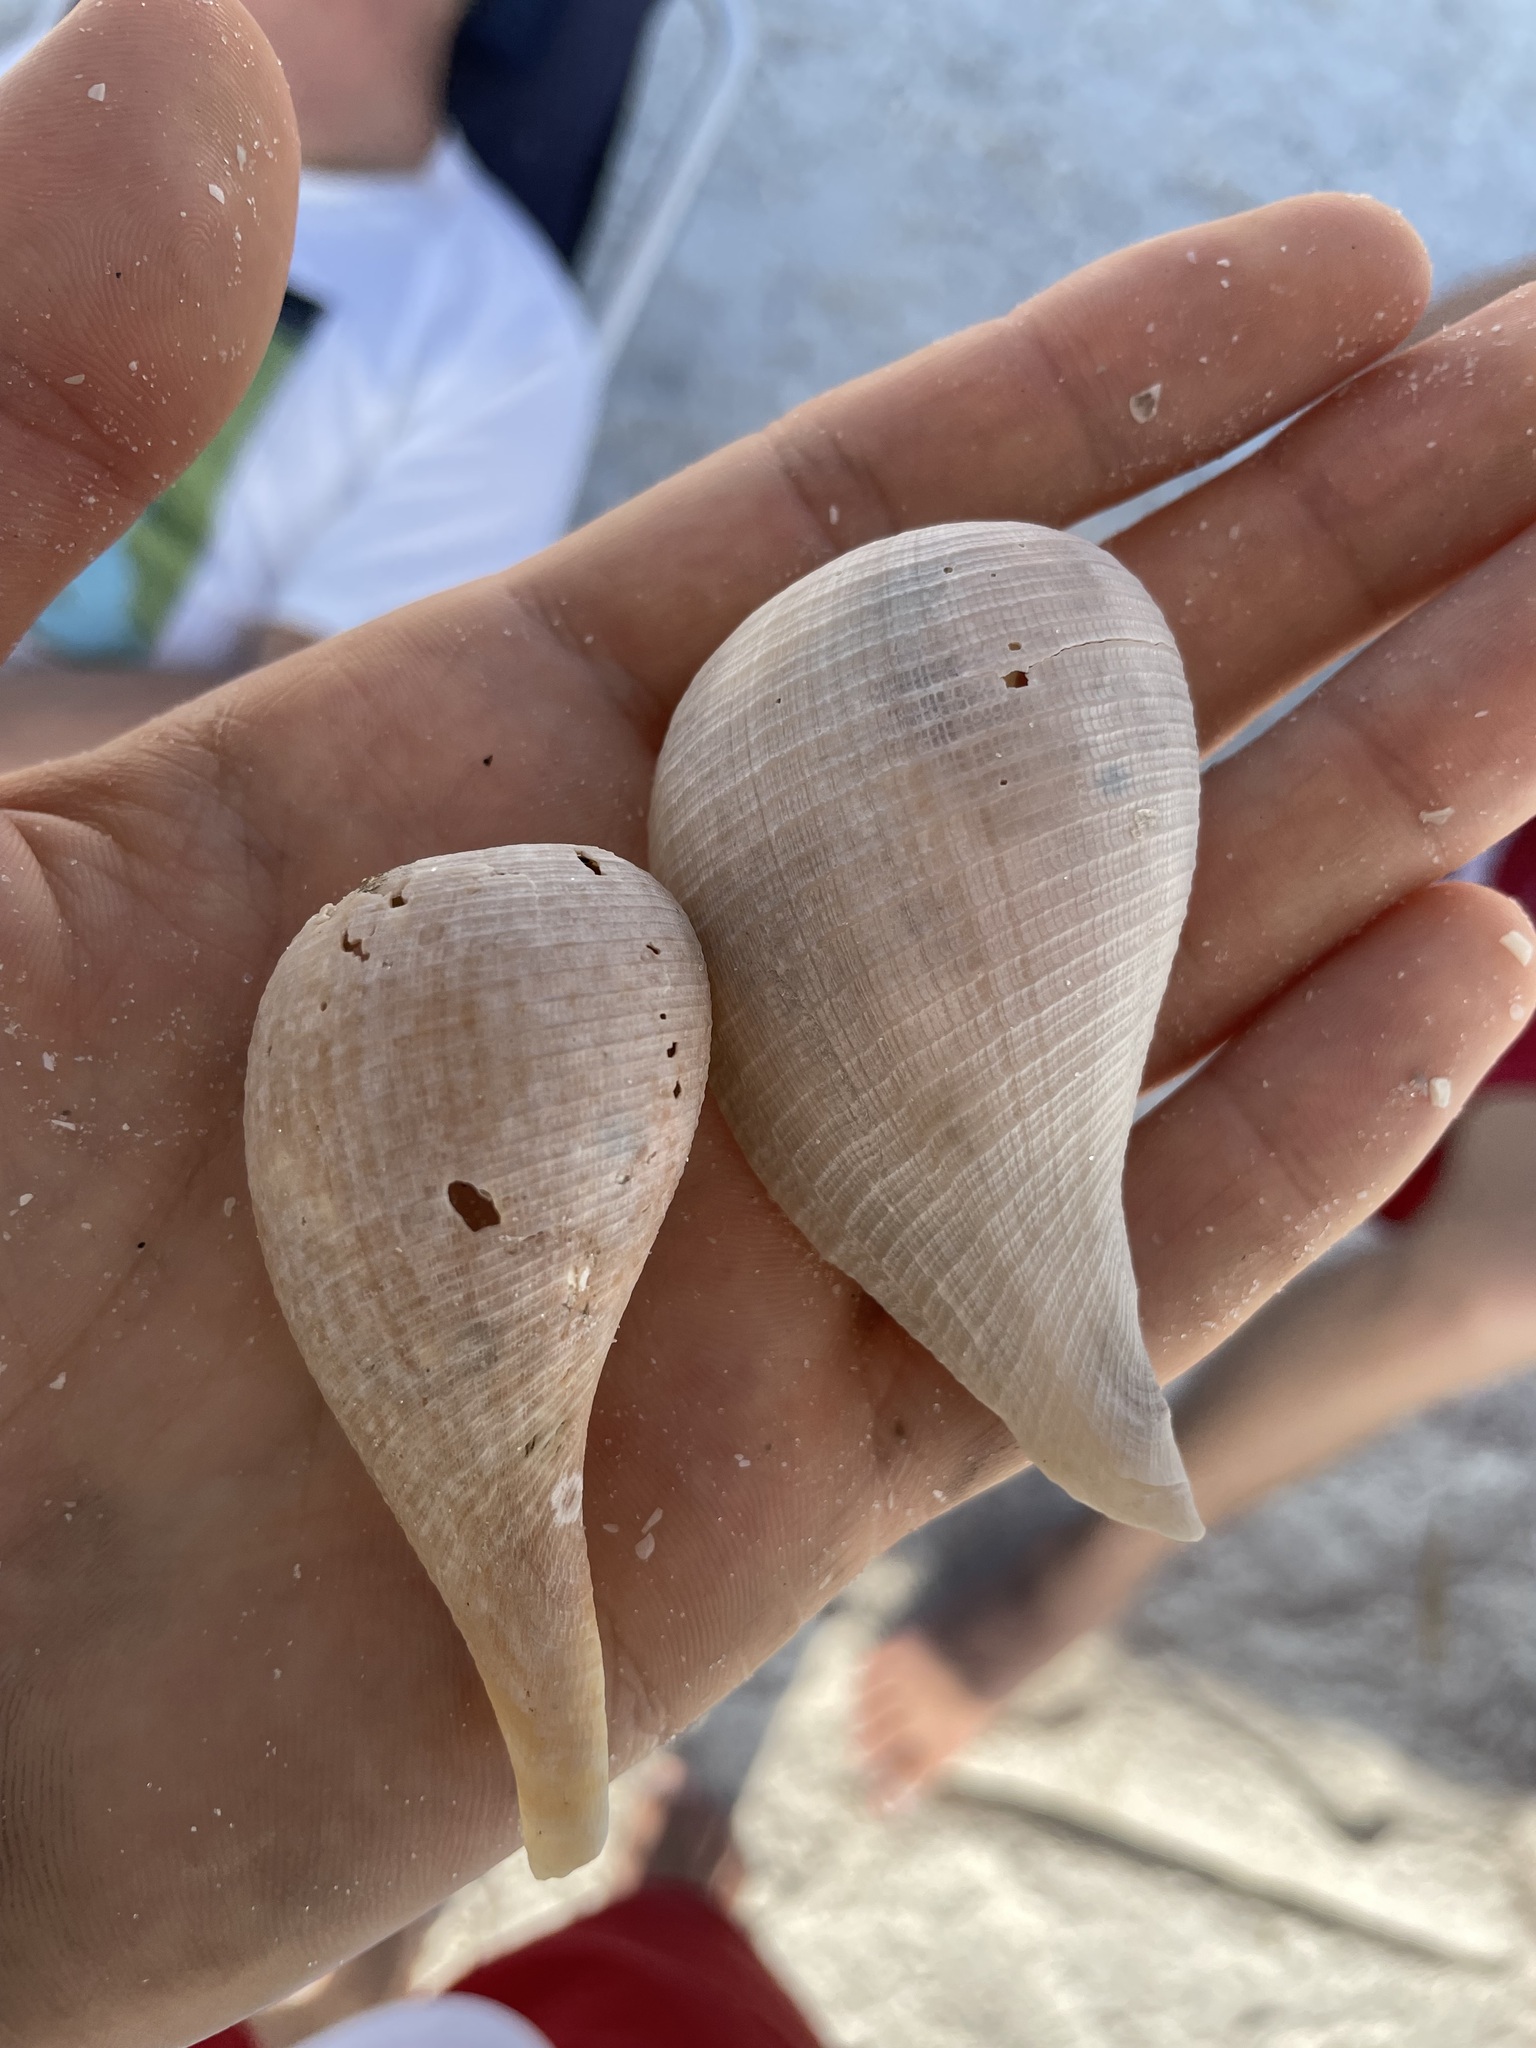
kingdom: Animalia
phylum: Mollusca
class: Gastropoda
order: Littorinimorpha
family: Ficidae
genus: Ficus
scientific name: Ficus papyratia
